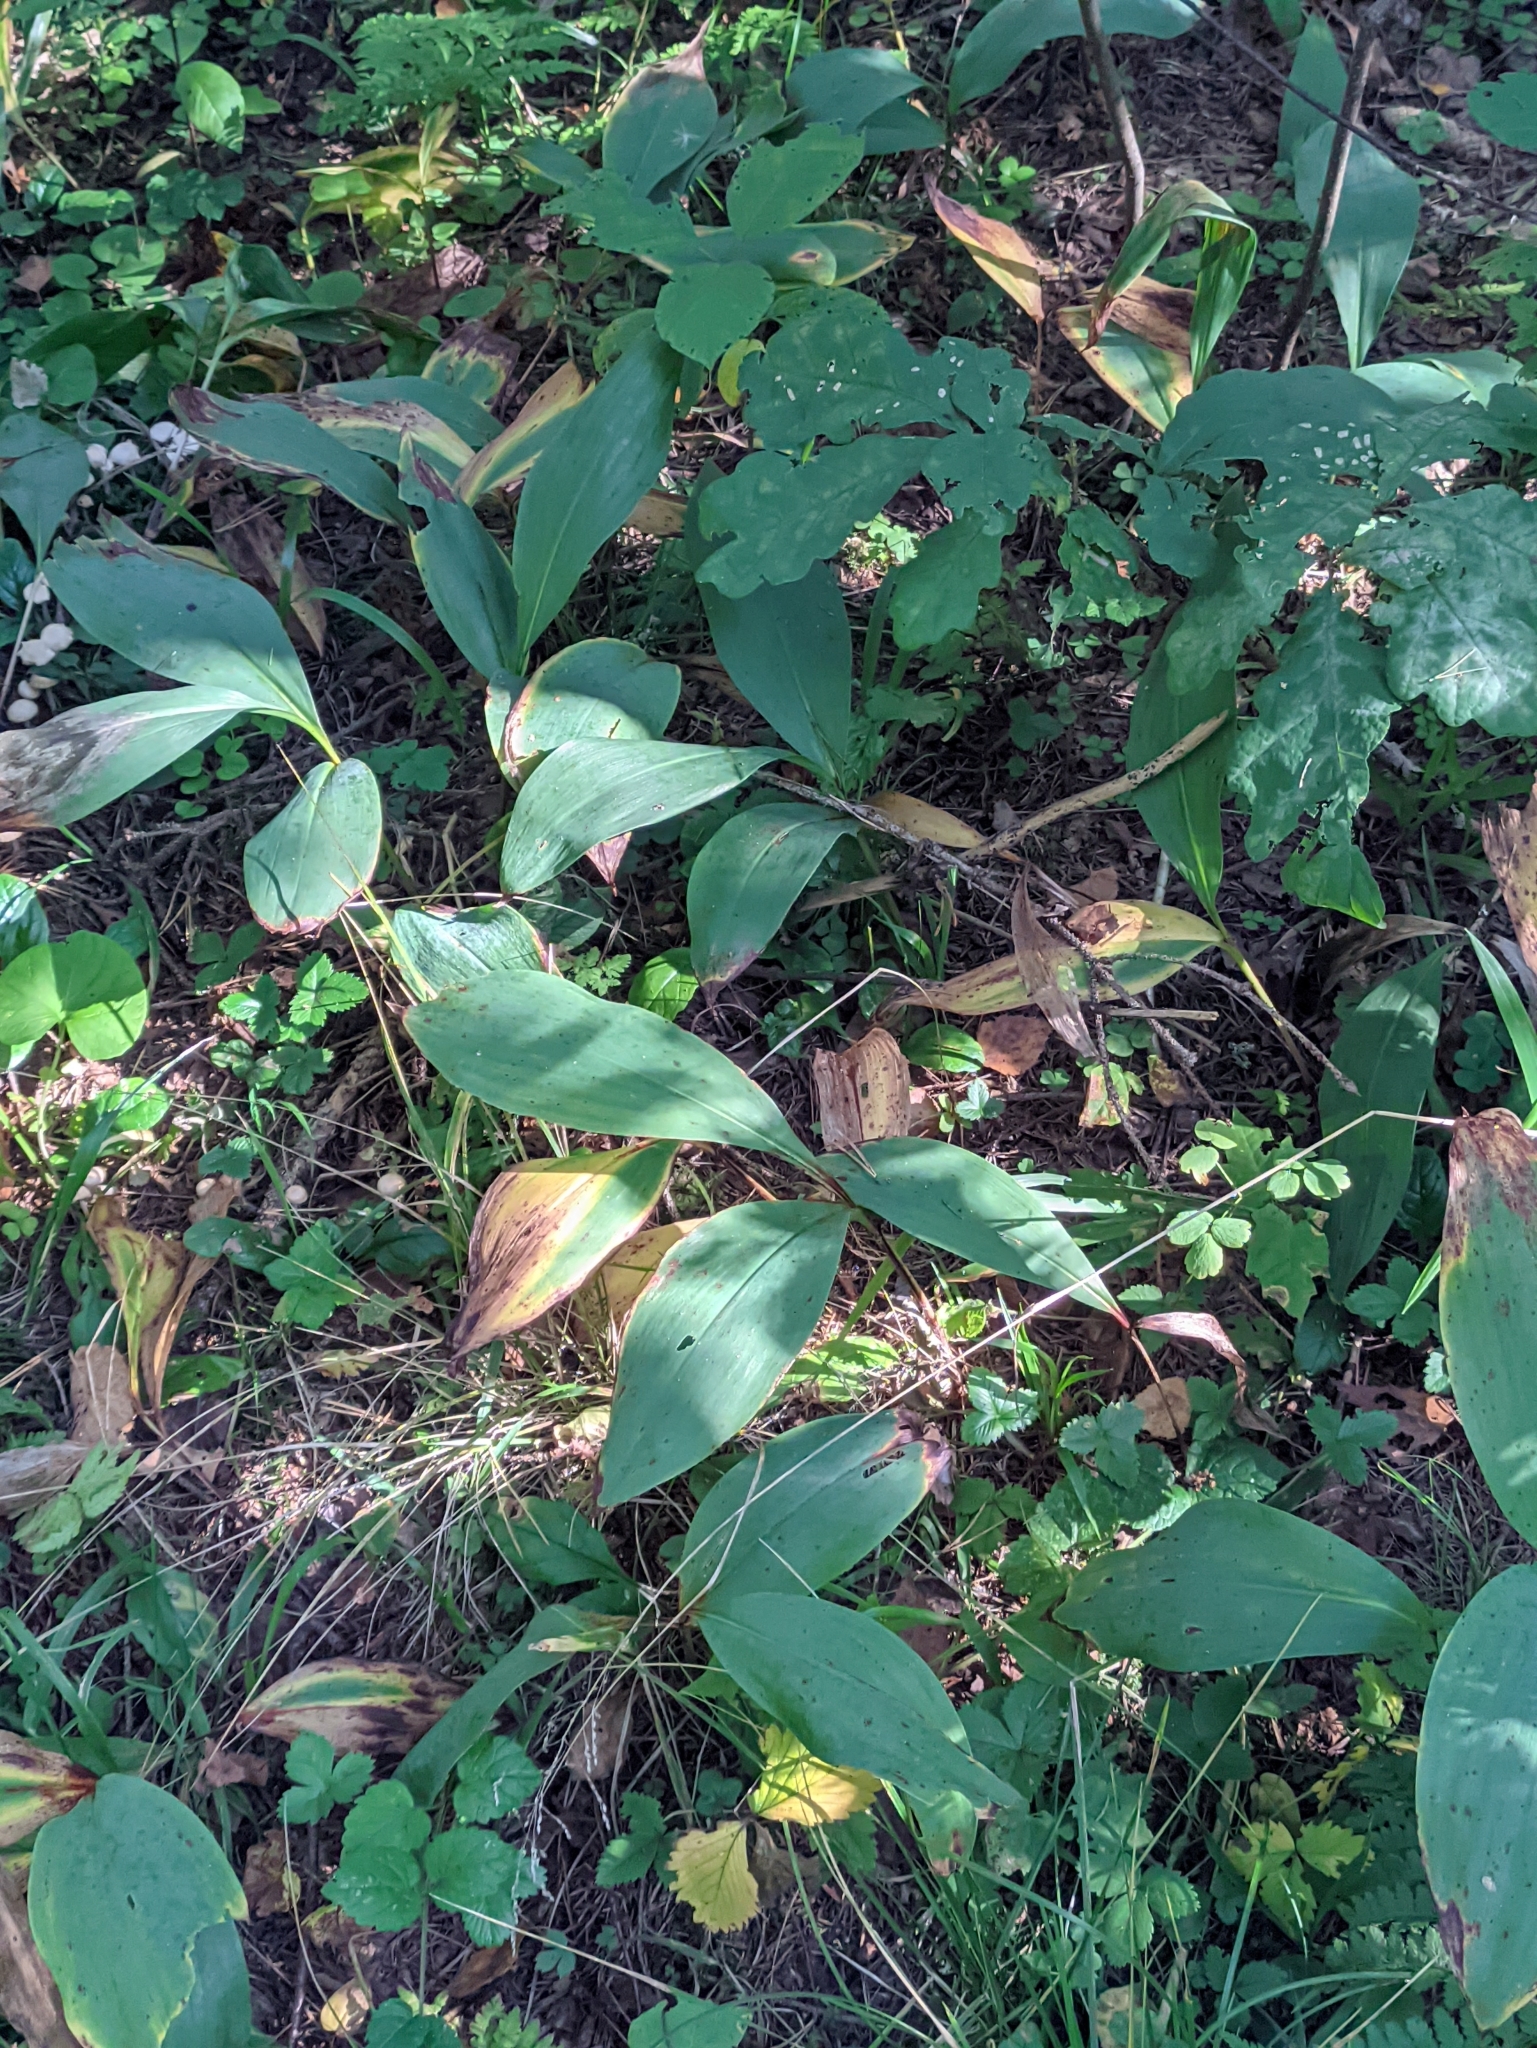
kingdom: Plantae
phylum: Tracheophyta
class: Liliopsida
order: Asparagales
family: Asparagaceae
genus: Convallaria
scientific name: Convallaria majalis
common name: Lily-of-the-valley
